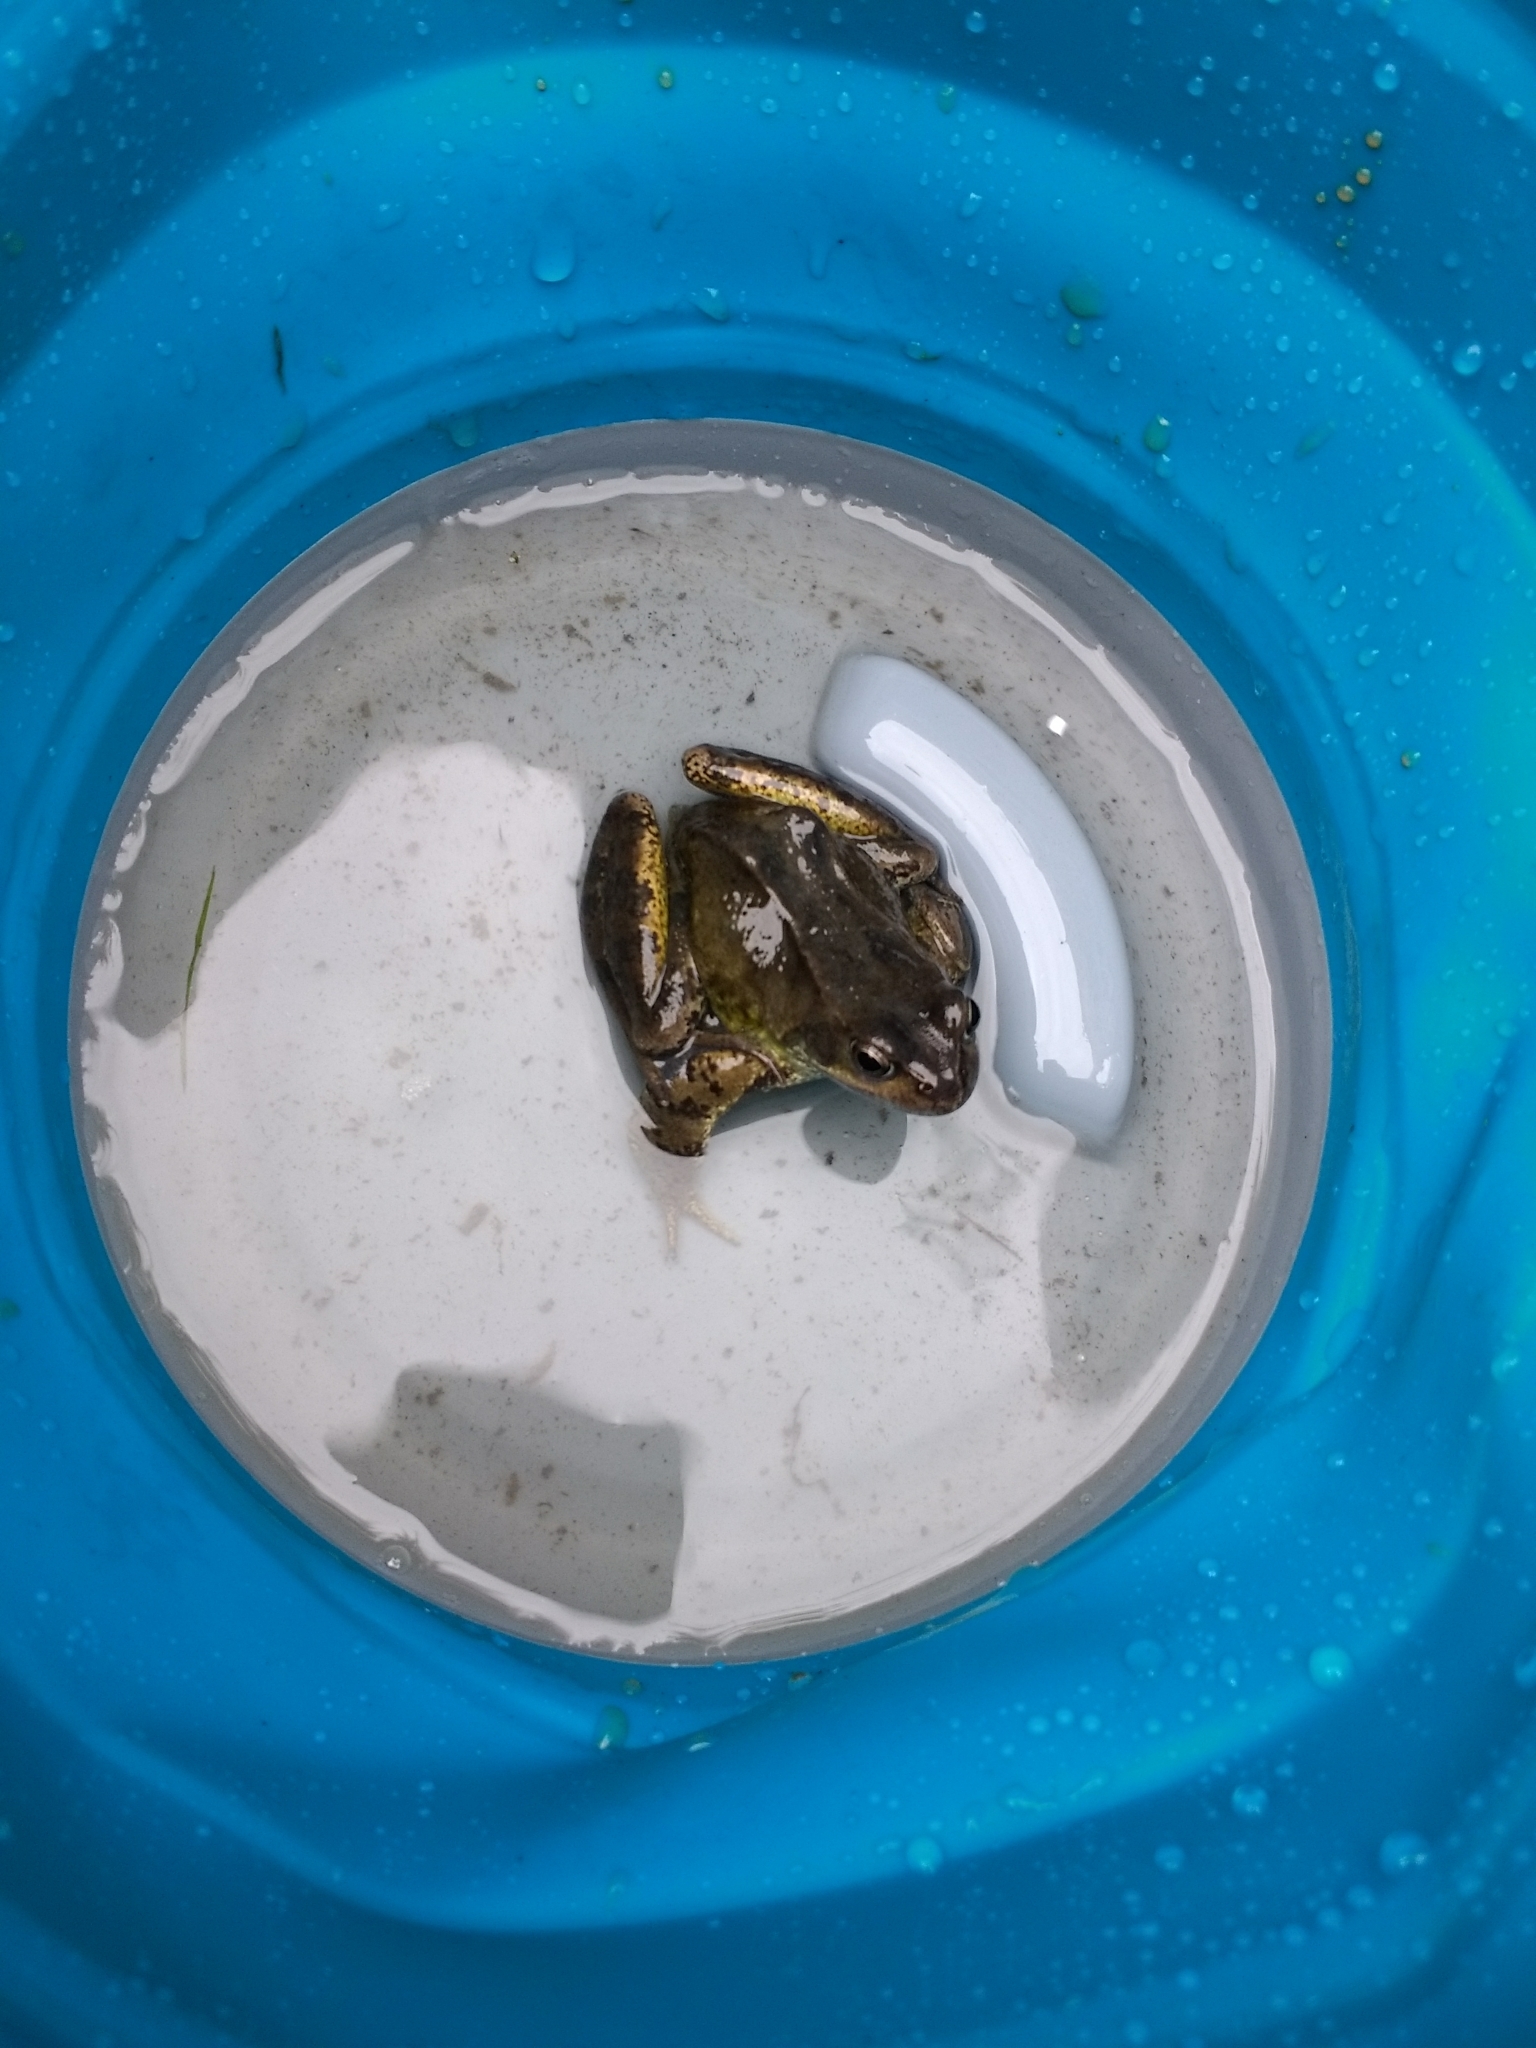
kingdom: Animalia
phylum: Chordata
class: Amphibia
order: Anura
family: Ranidae
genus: Rana
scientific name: Rana temporaria
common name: Common frog
